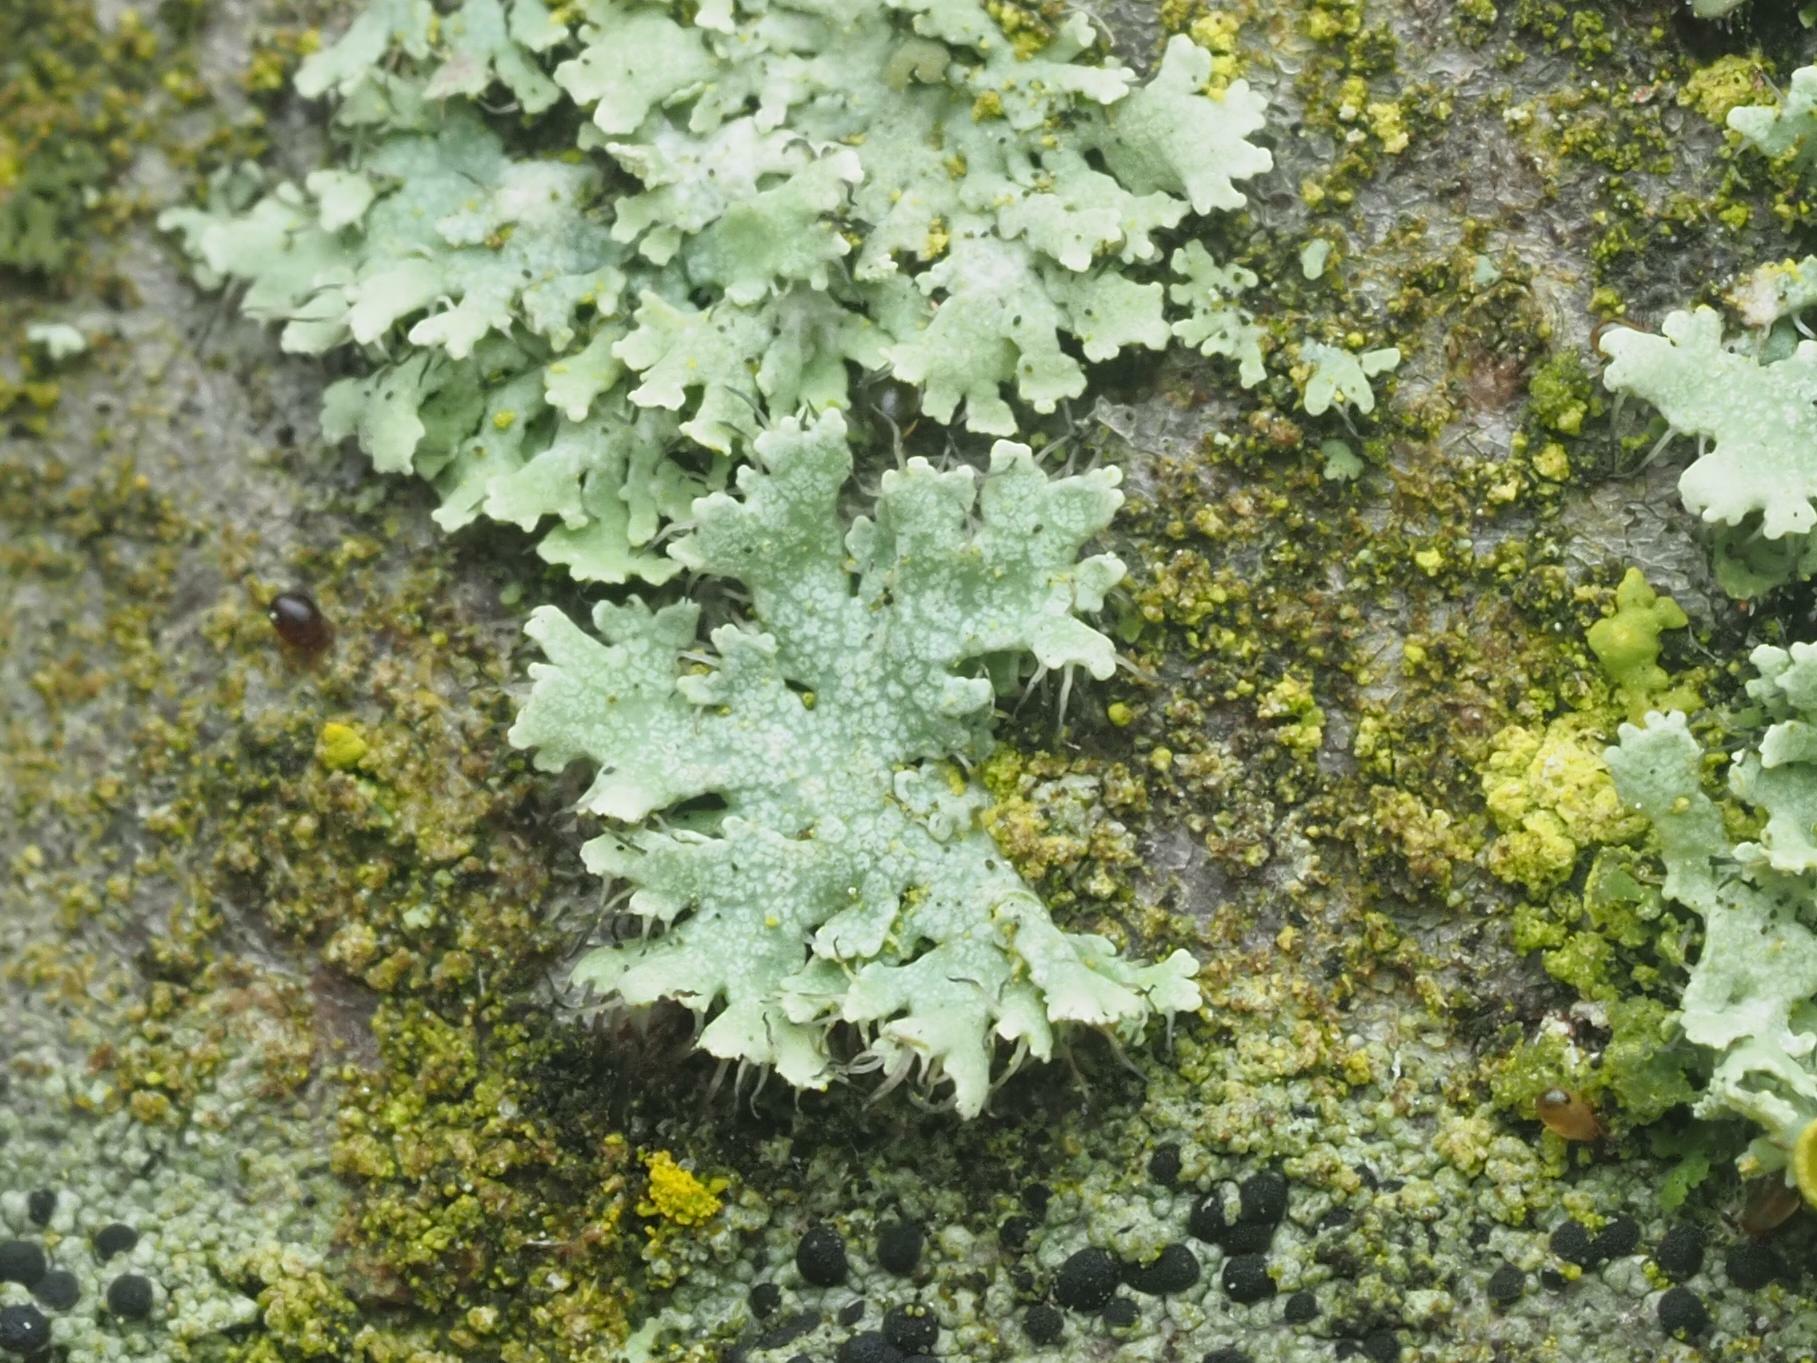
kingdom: Fungi
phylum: Ascomycota
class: Lecanoromycetes
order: Caliciales
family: Physciaceae
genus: Physcia
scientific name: Physcia adscendens
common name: Hooded rosette lichen
